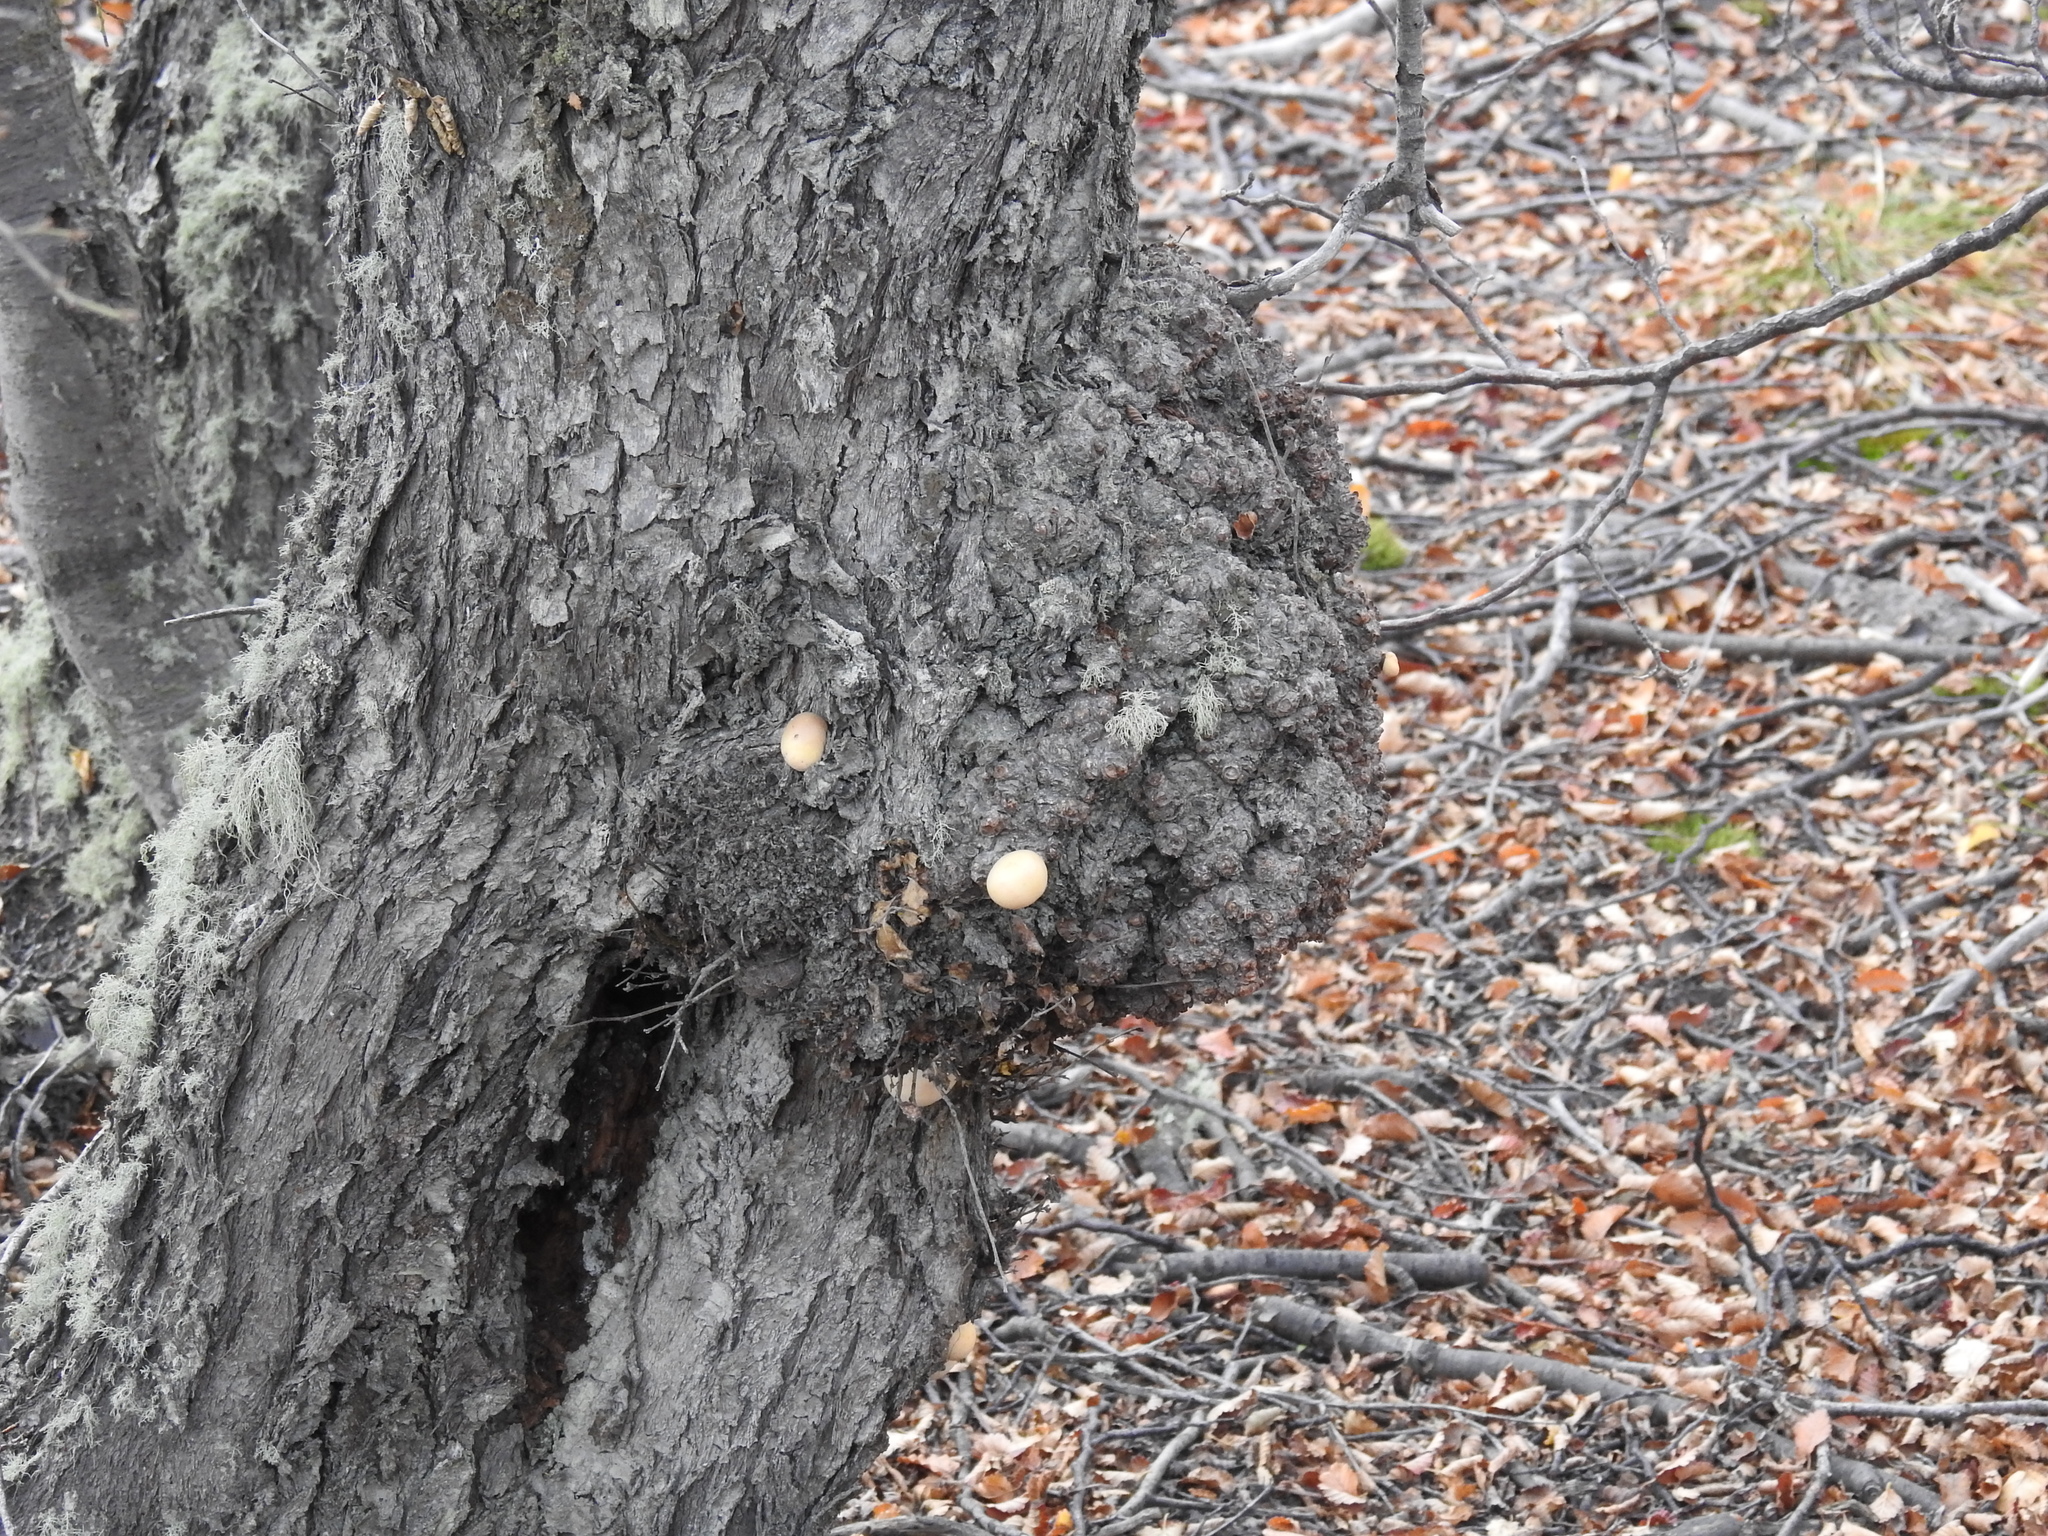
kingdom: Fungi
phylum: Ascomycota
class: Leotiomycetes
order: Cyttariales
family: Cyttariaceae
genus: Cyttaria
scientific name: Cyttaria darwinii
